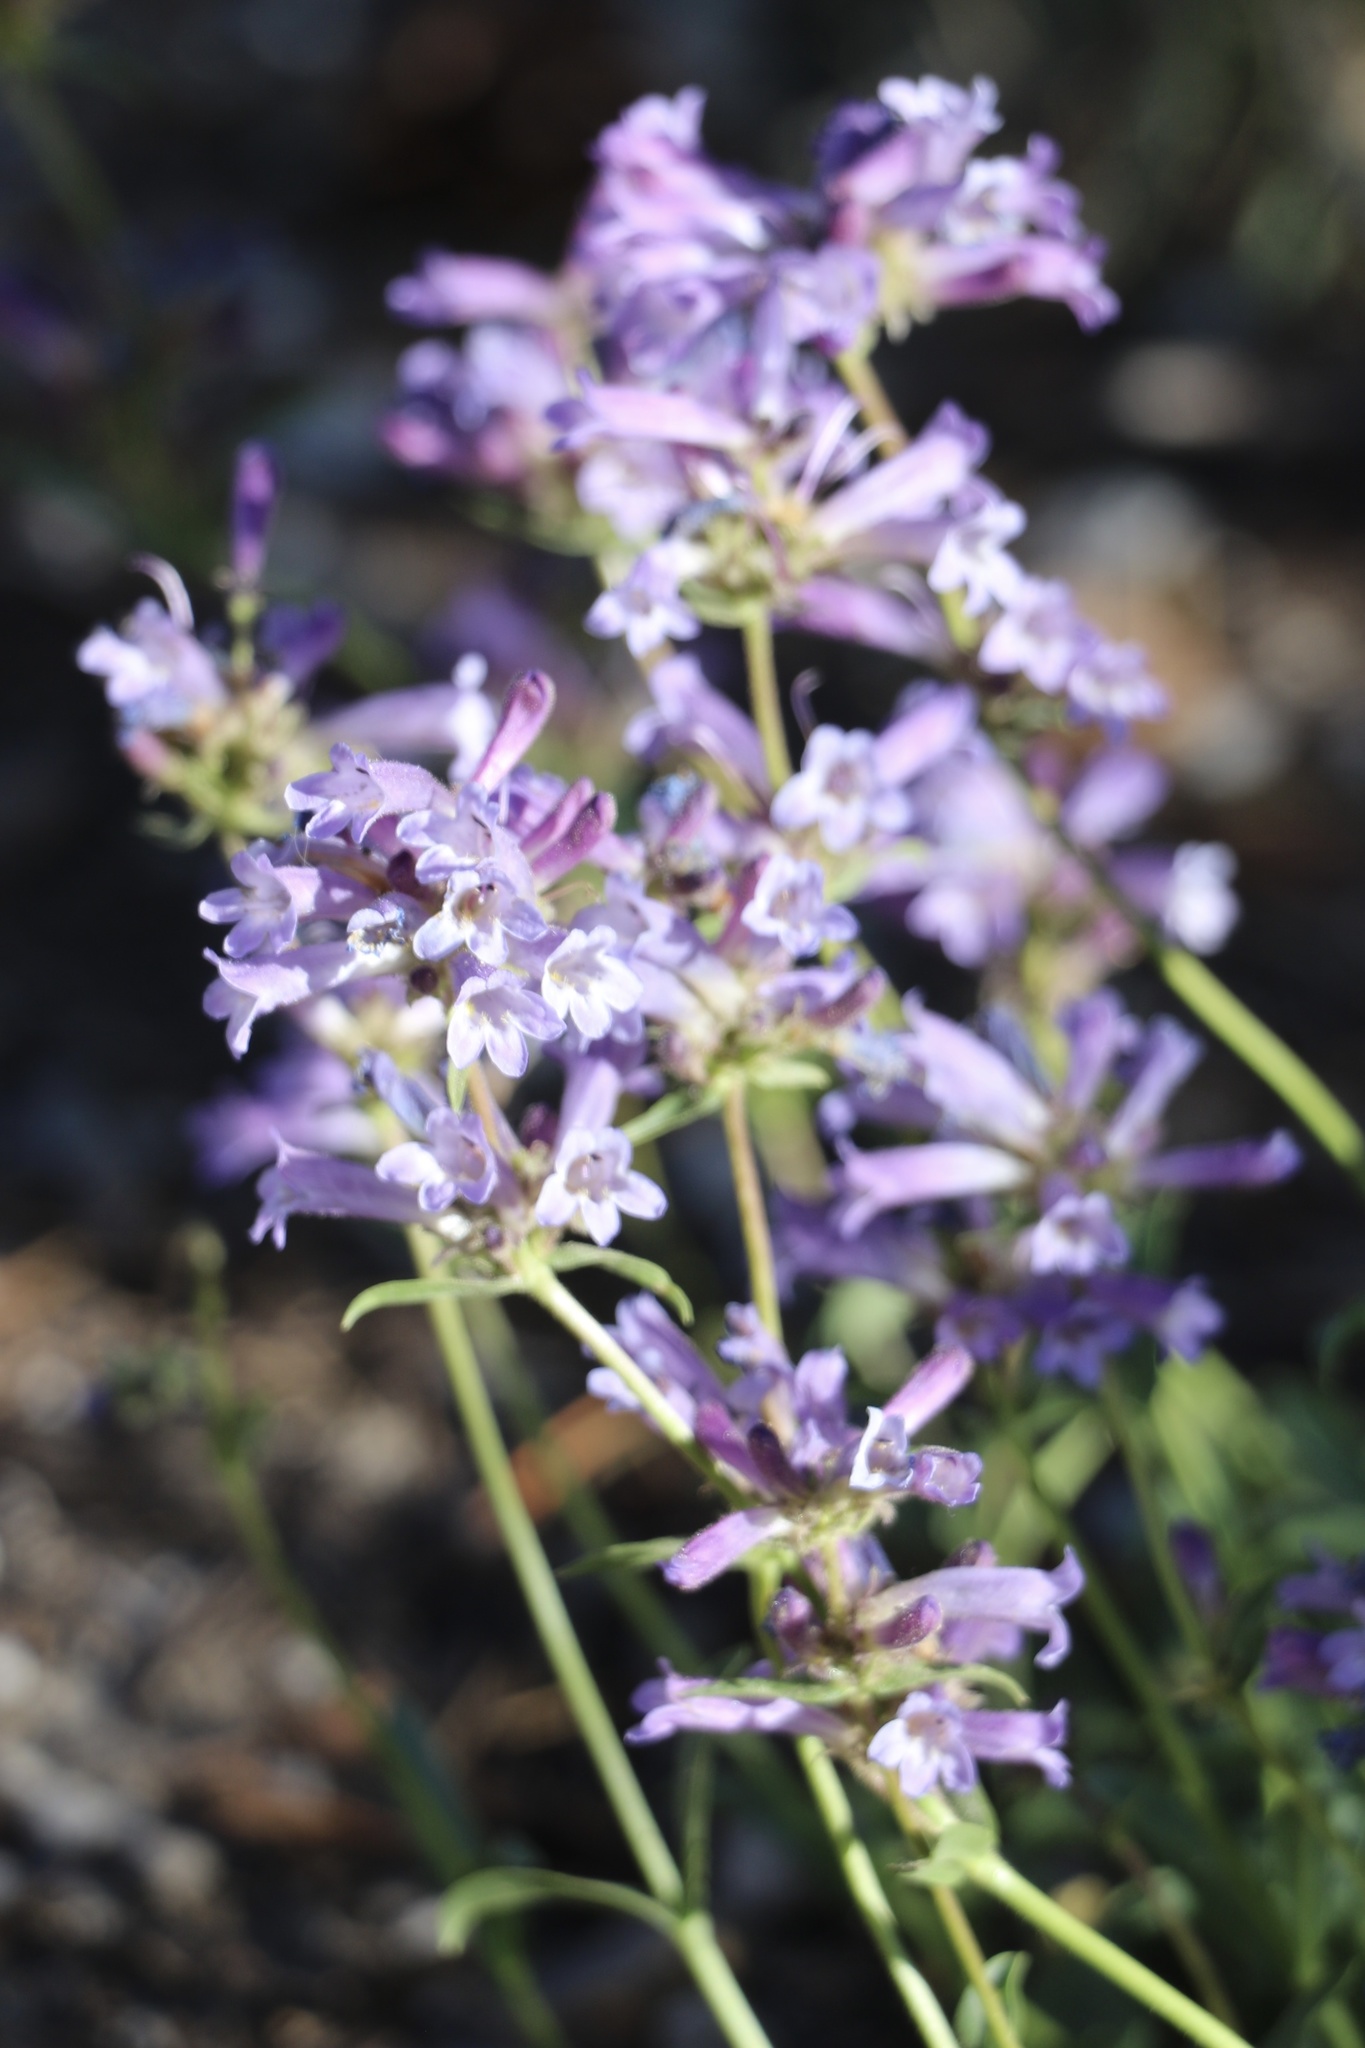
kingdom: Plantae
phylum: Tracheophyta
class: Magnoliopsida
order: Lamiales
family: Plantaginaceae
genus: Penstemon
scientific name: Penstemon heterodoxus
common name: Sierran penstemon
